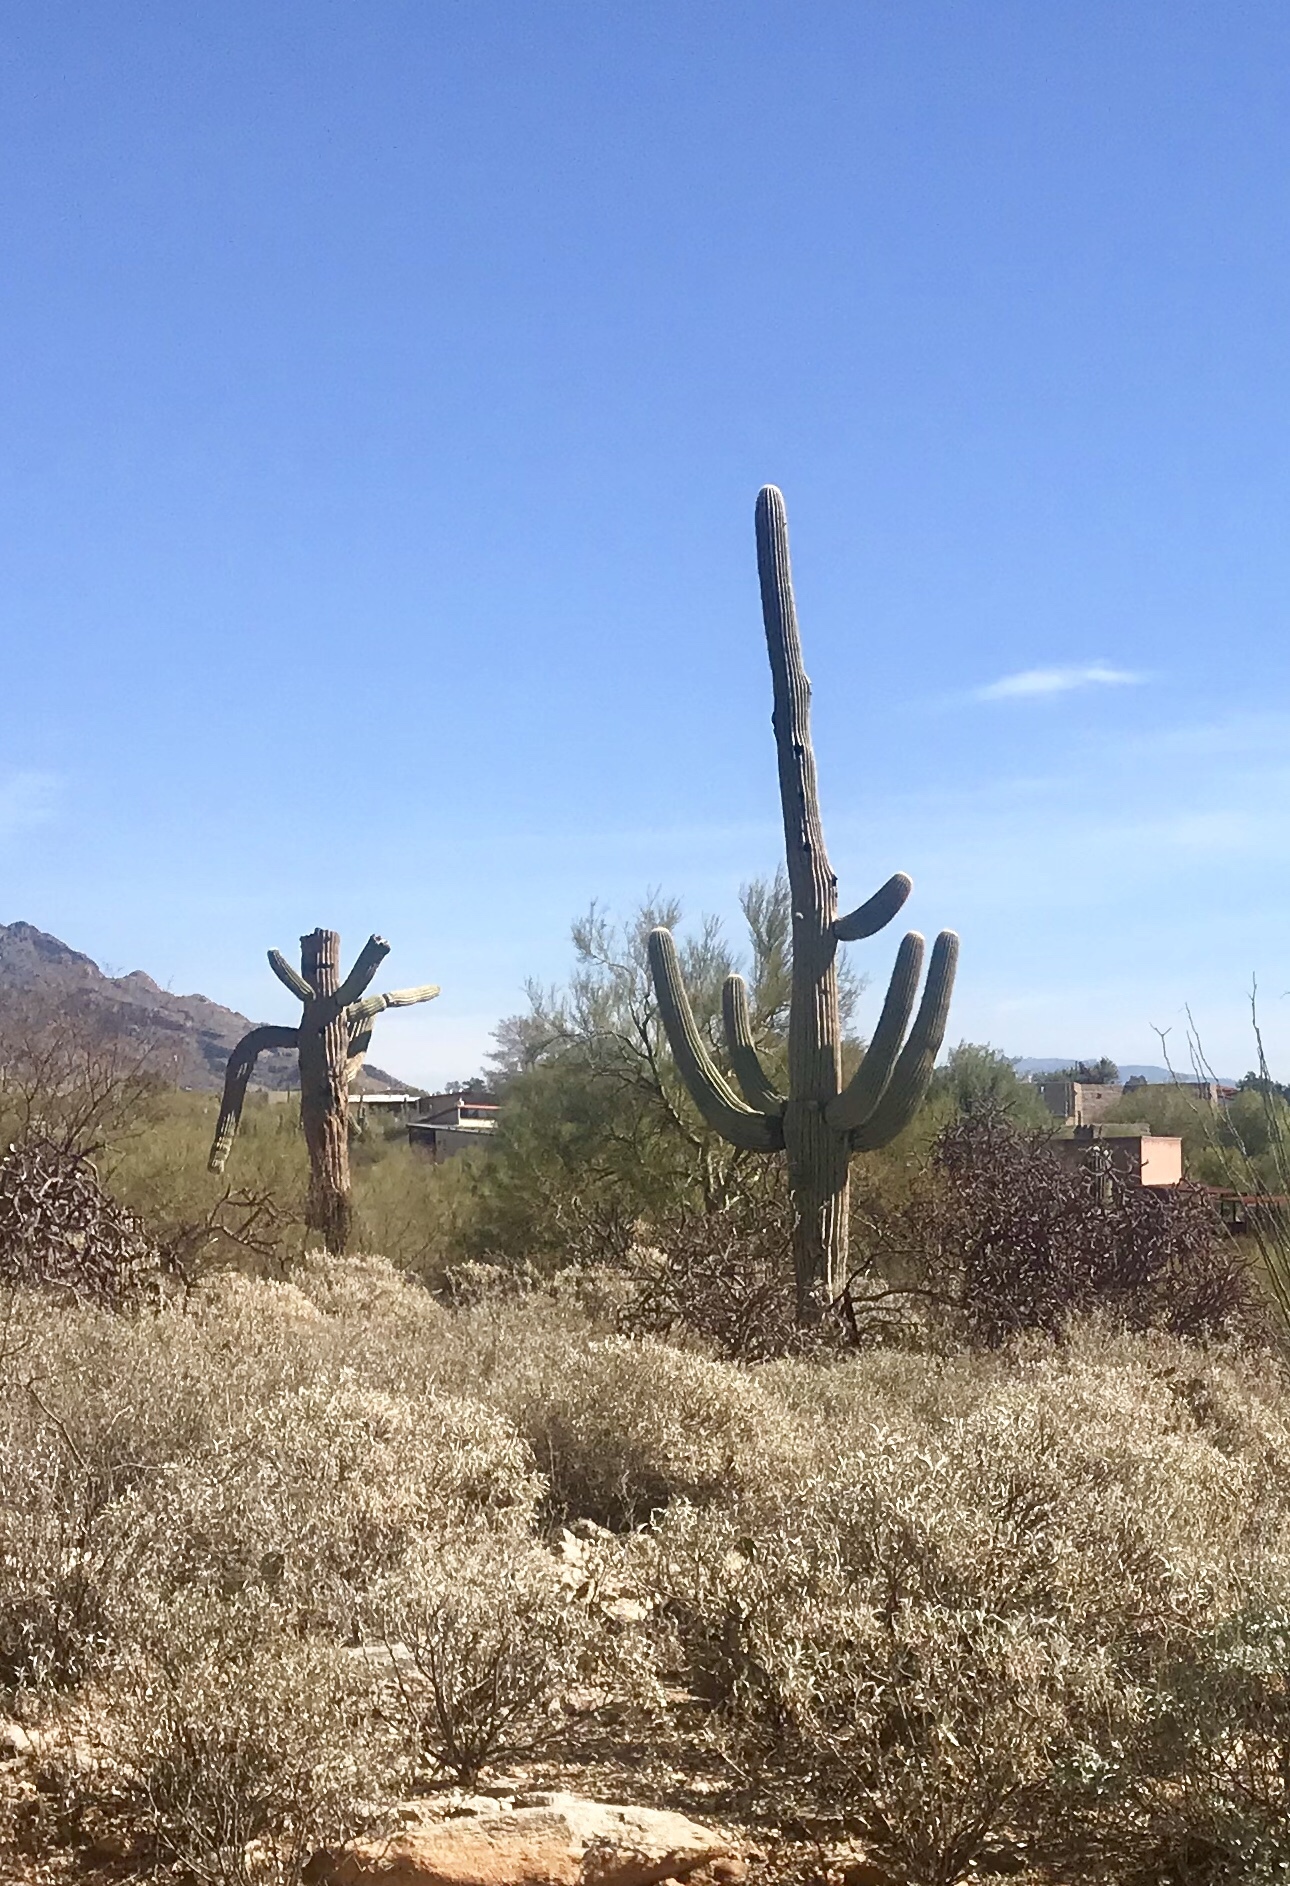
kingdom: Plantae
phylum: Tracheophyta
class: Magnoliopsida
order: Caryophyllales
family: Cactaceae
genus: Carnegiea
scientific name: Carnegiea gigantea
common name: Saguaro
